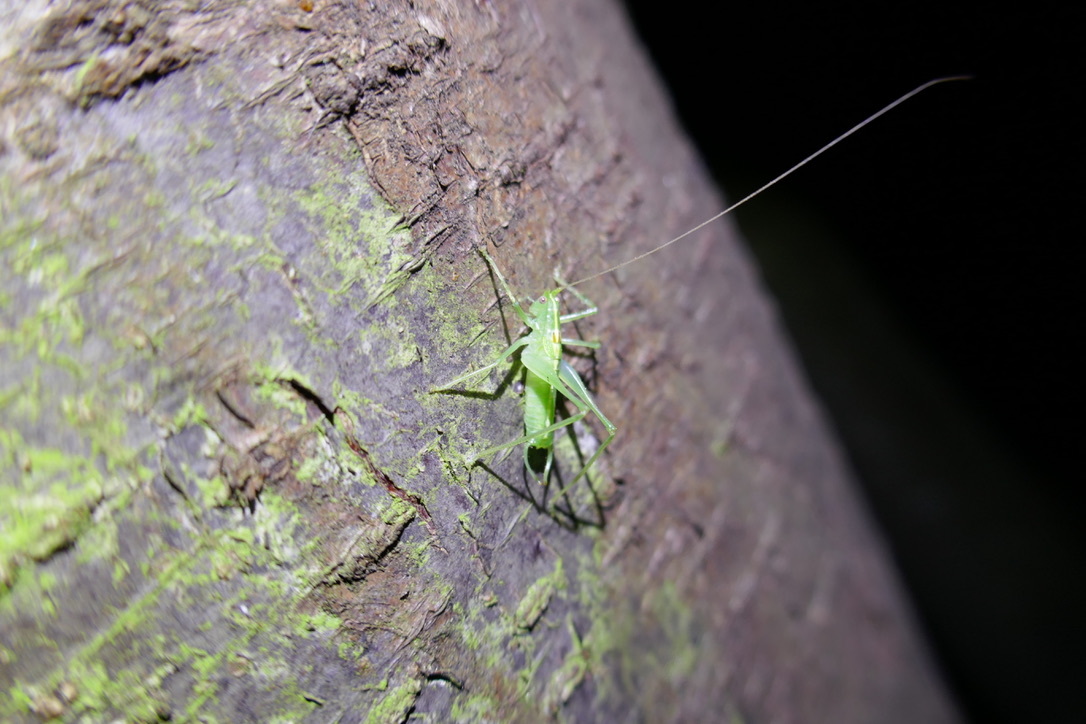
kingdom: Animalia
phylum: Arthropoda
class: Insecta
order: Orthoptera
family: Tettigoniidae
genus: Meconema
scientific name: Meconema meridionale
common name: Southern oak bush-cricket
